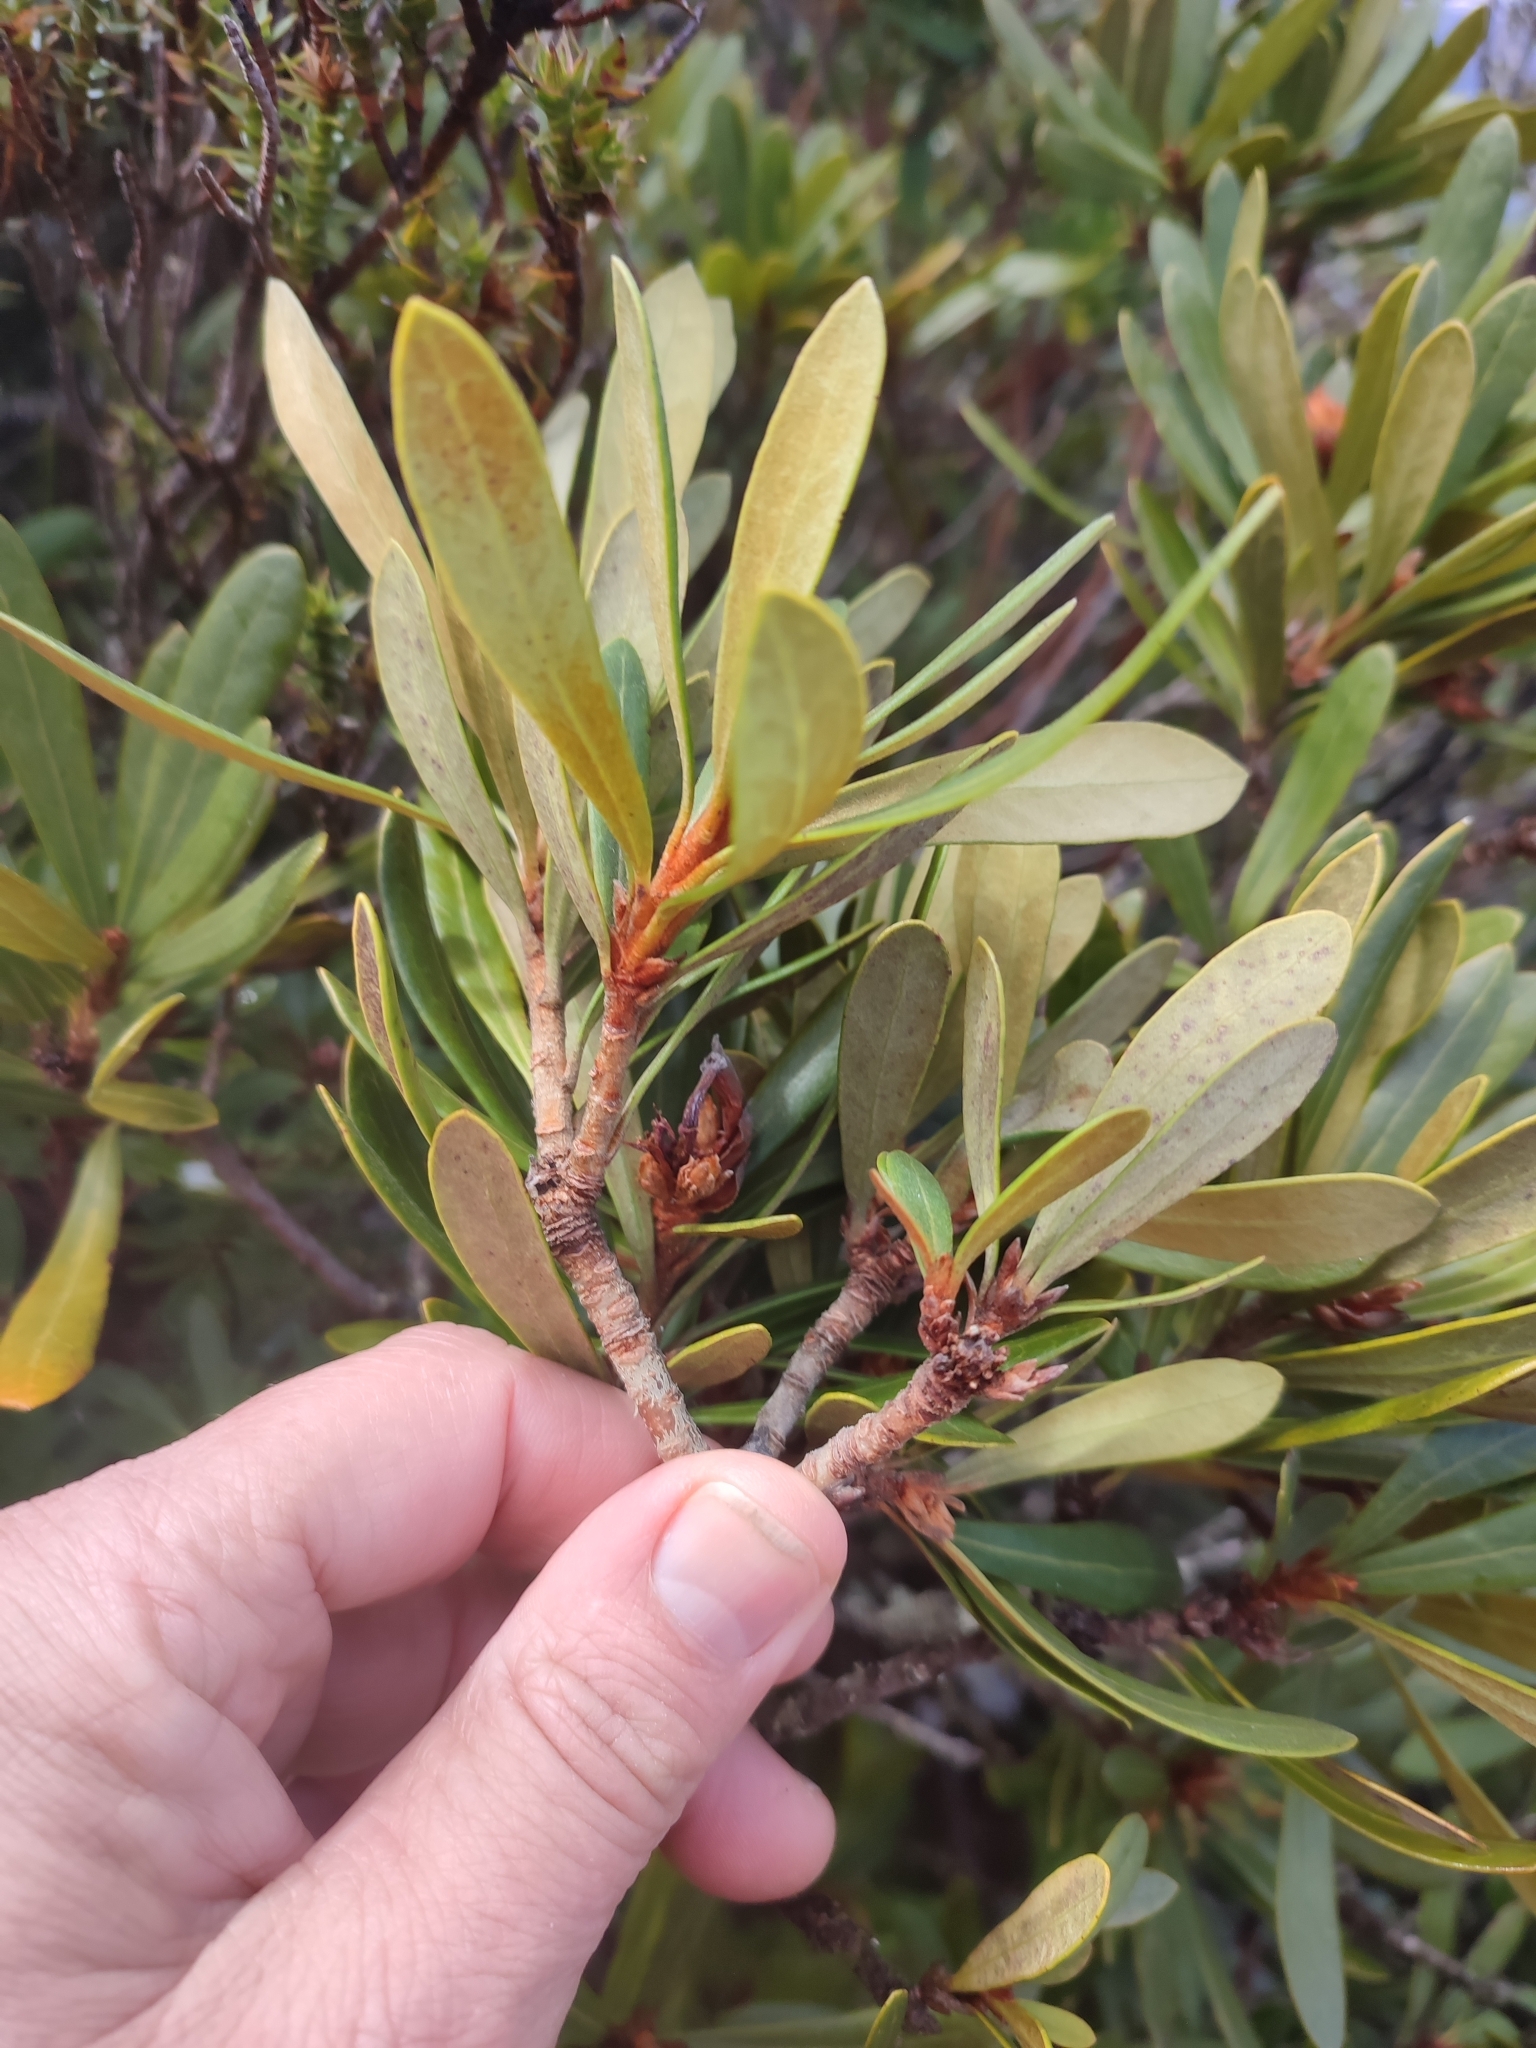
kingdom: Plantae
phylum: Tracheophyta
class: Magnoliopsida
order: Proteales
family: Proteaceae
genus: Telopea
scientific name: Telopea truncata
